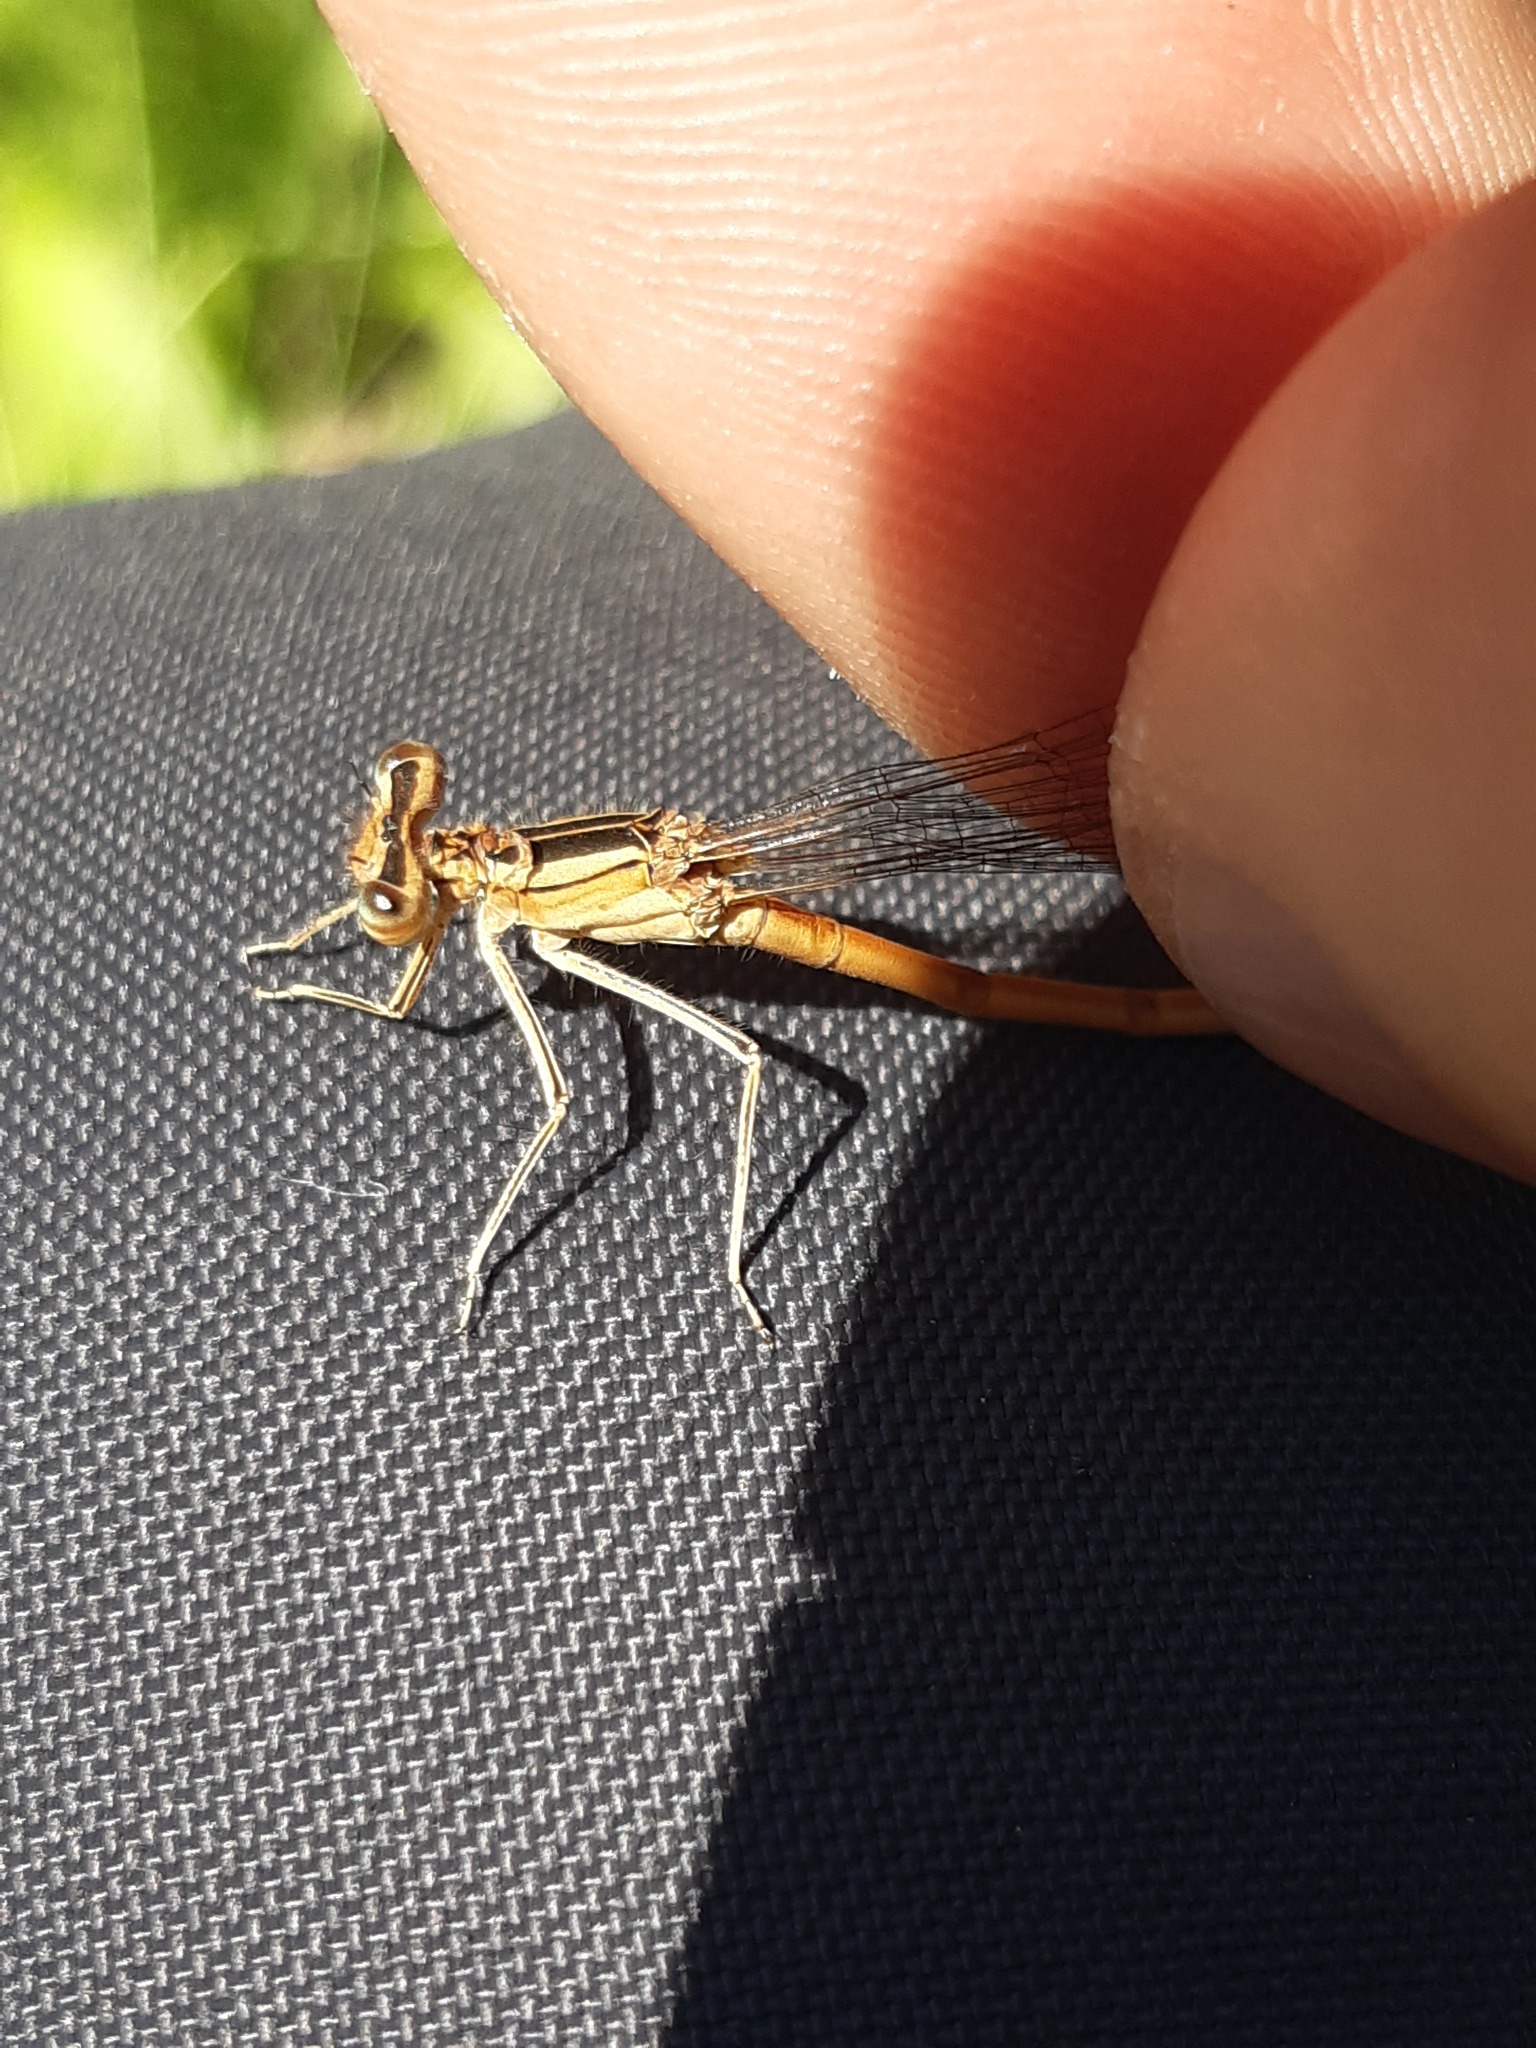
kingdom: Animalia
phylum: Arthropoda
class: Insecta
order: Odonata
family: Platycnemididae
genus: Platycnemis
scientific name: Platycnemis acutipennis
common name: Orange featherleg
